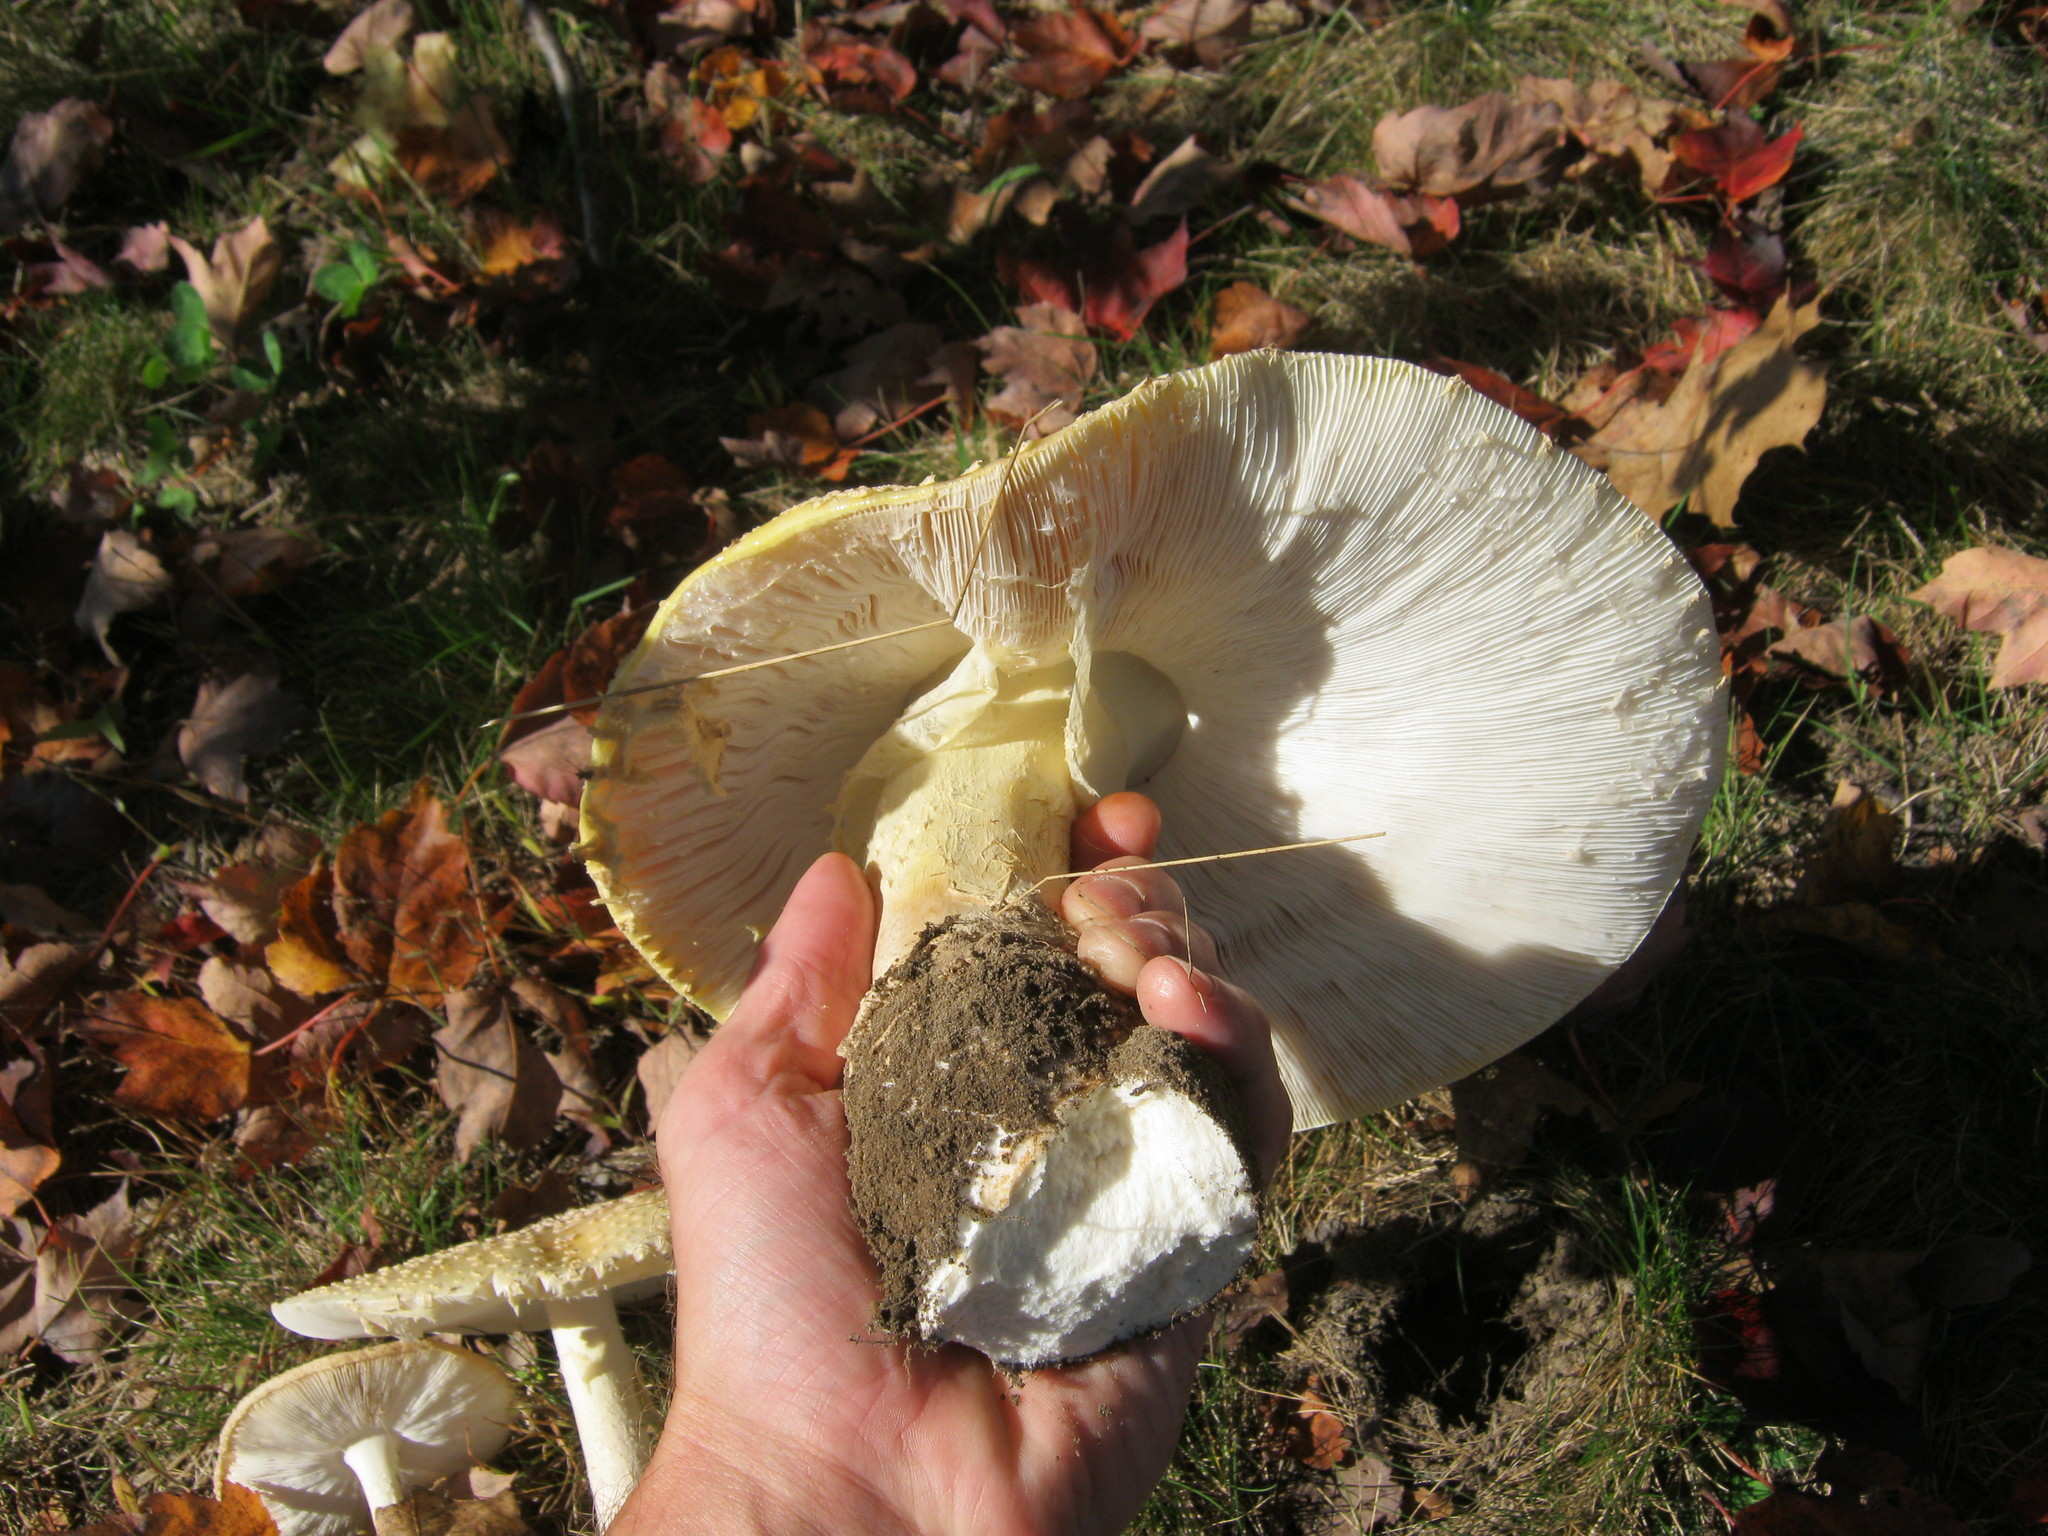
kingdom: Fungi
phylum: Basidiomycota
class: Agaricomycetes
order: Agaricales
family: Amanitaceae
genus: Amanita
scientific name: Amanita muscaria
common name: Fly agaric
